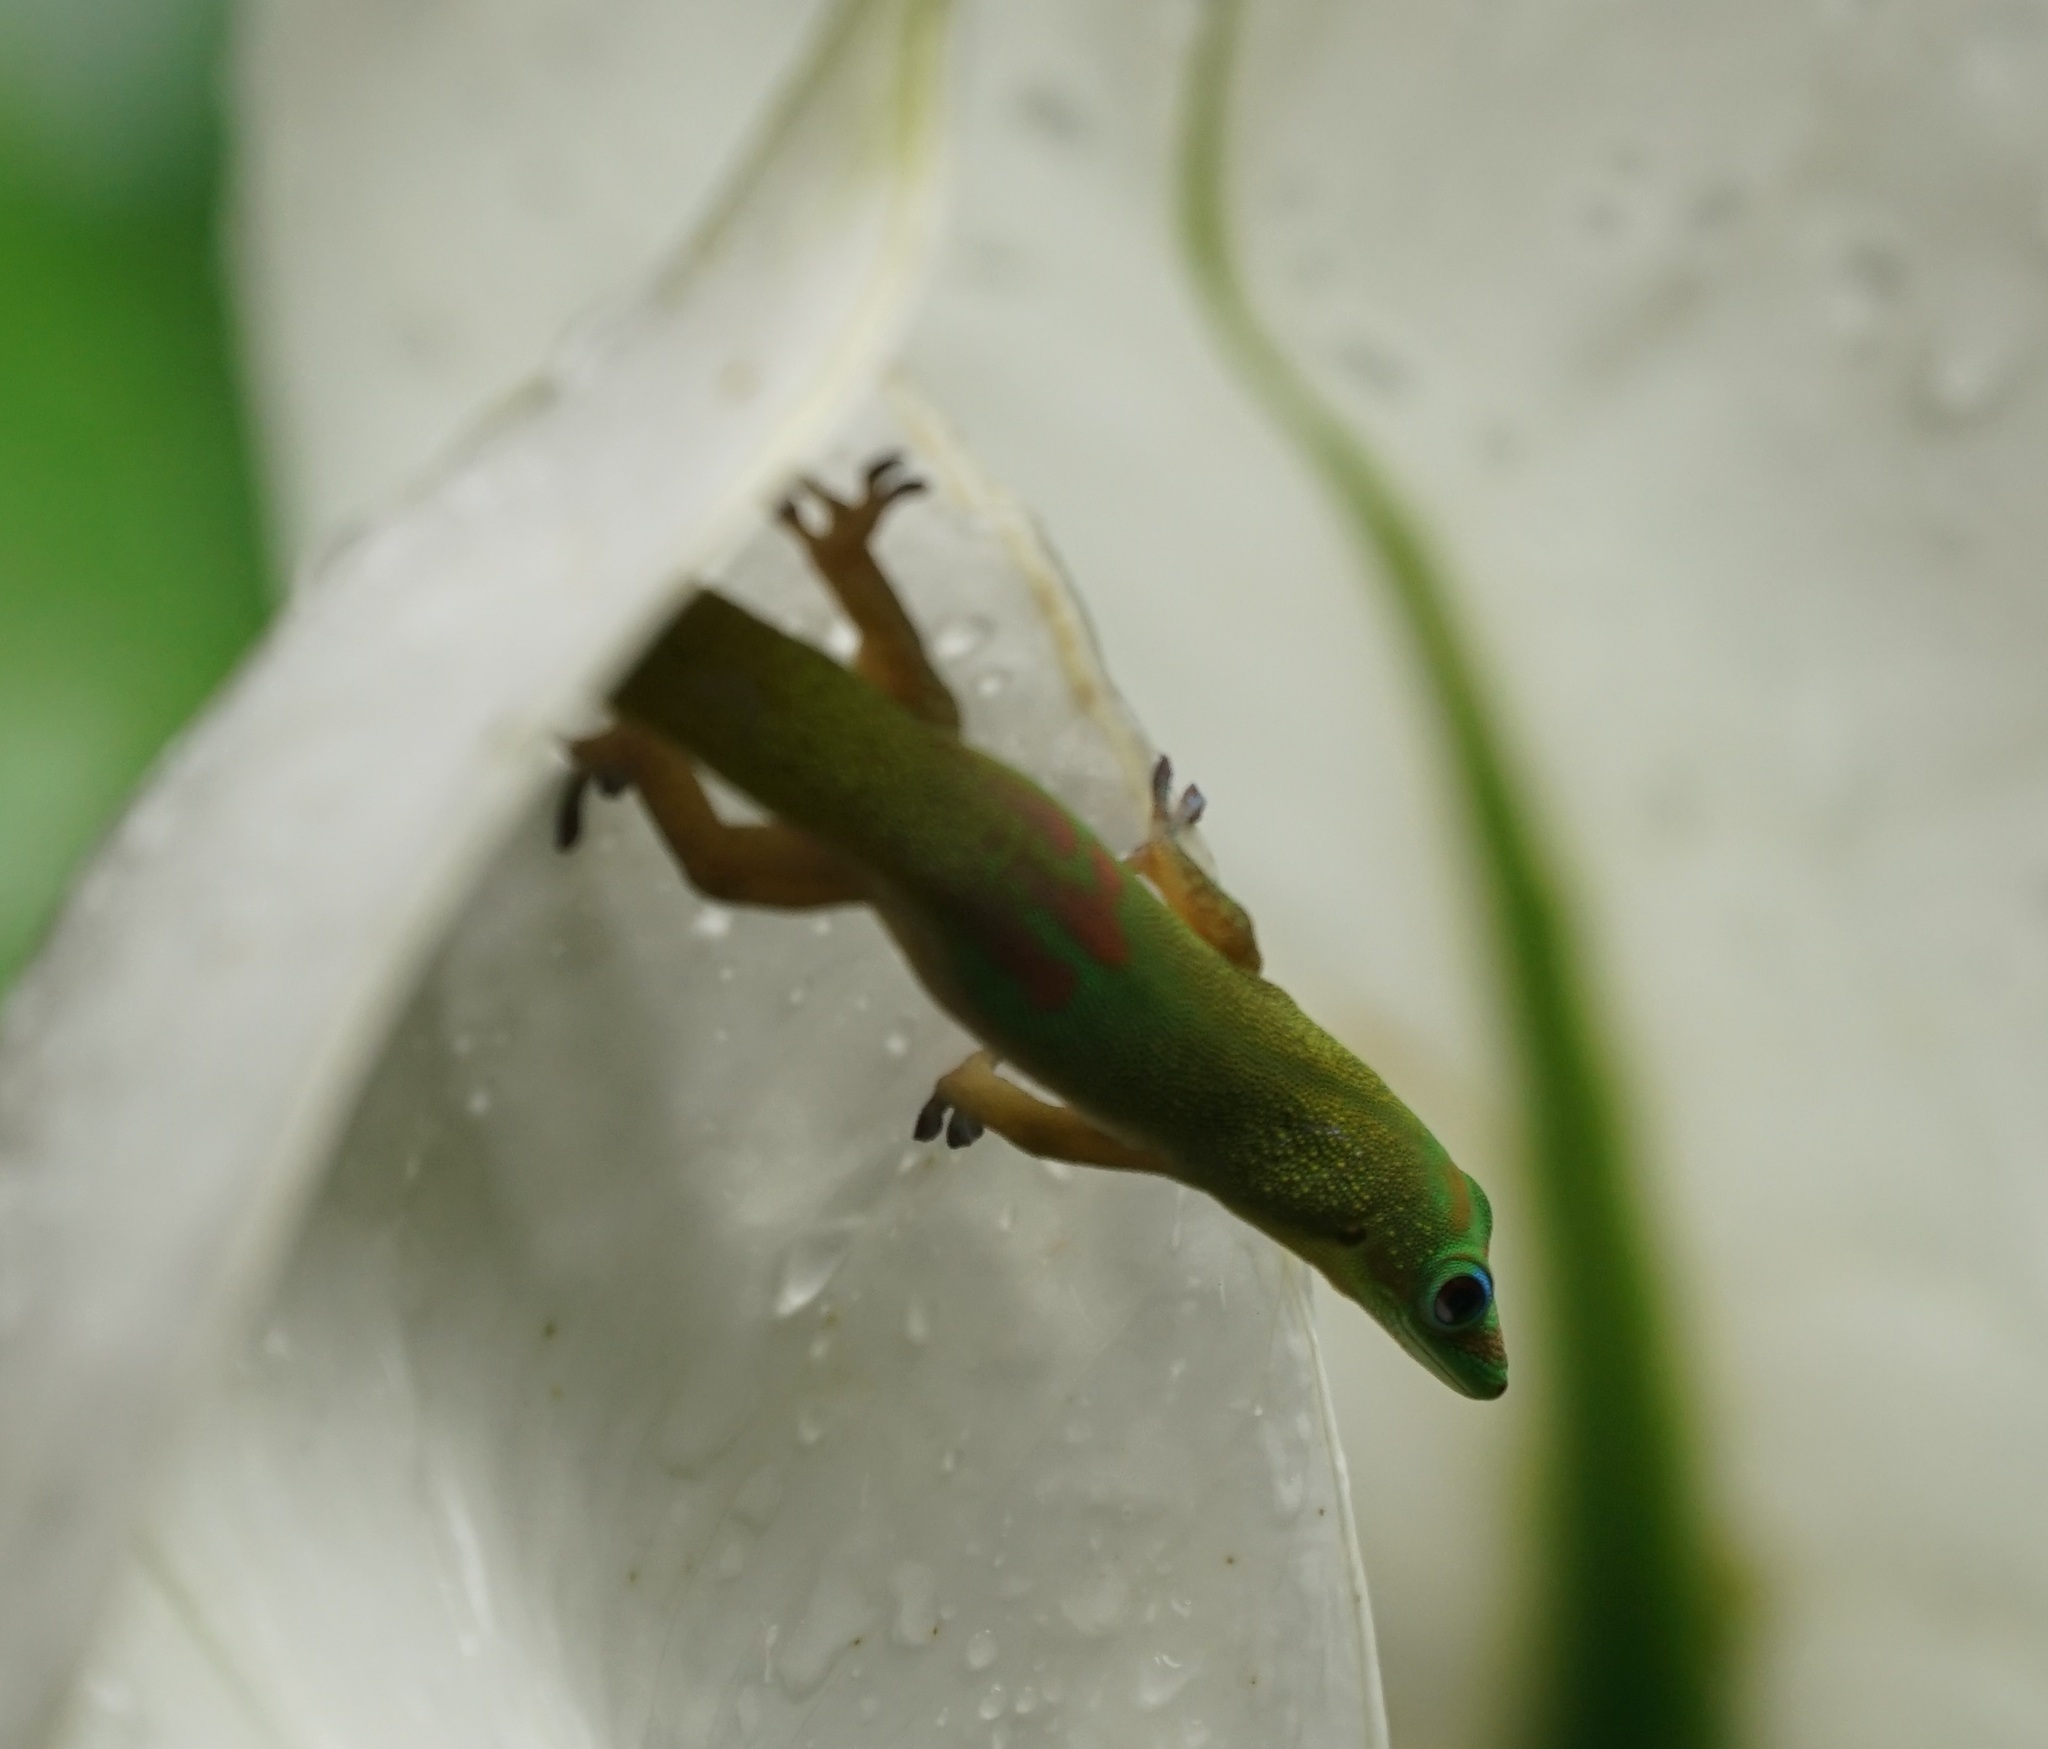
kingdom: Animalia
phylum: Chordata
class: Squamata
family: Gekkonidae
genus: Phelsuma
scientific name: Phelsuma laticauda
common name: Gold dust day gecko
